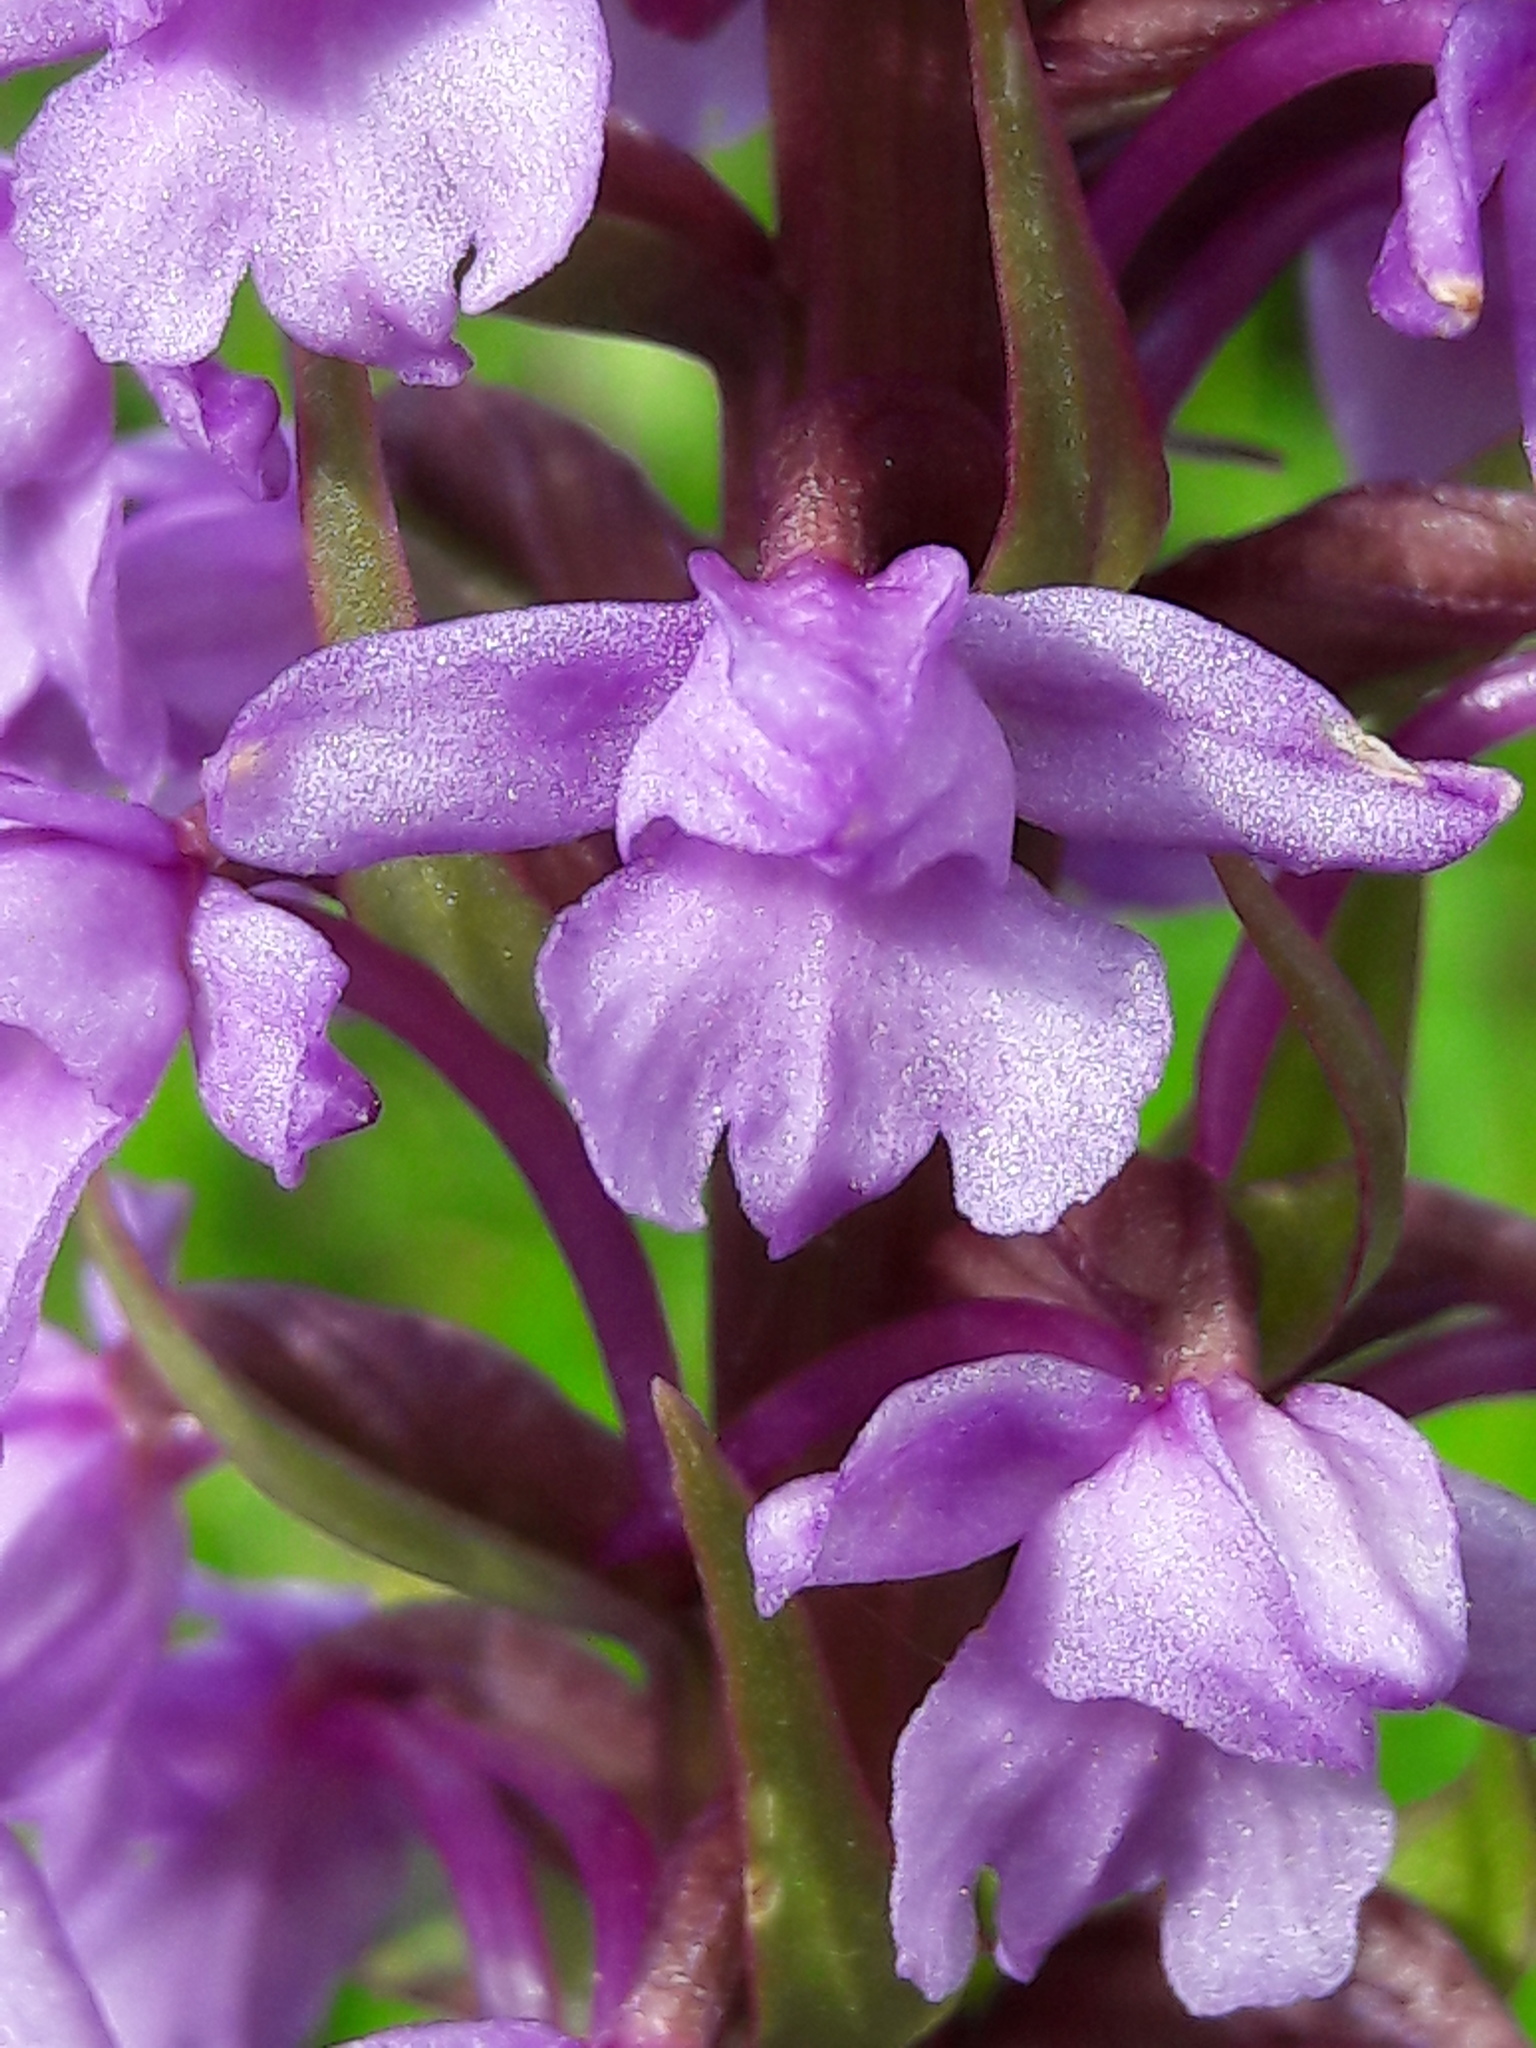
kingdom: Plantae
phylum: Tracheophyta
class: Liliopsida
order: Asparagales
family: Orchidaceae
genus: Gymnadenia
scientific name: Gymnadenia conopsea
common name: Fragrant orchid
